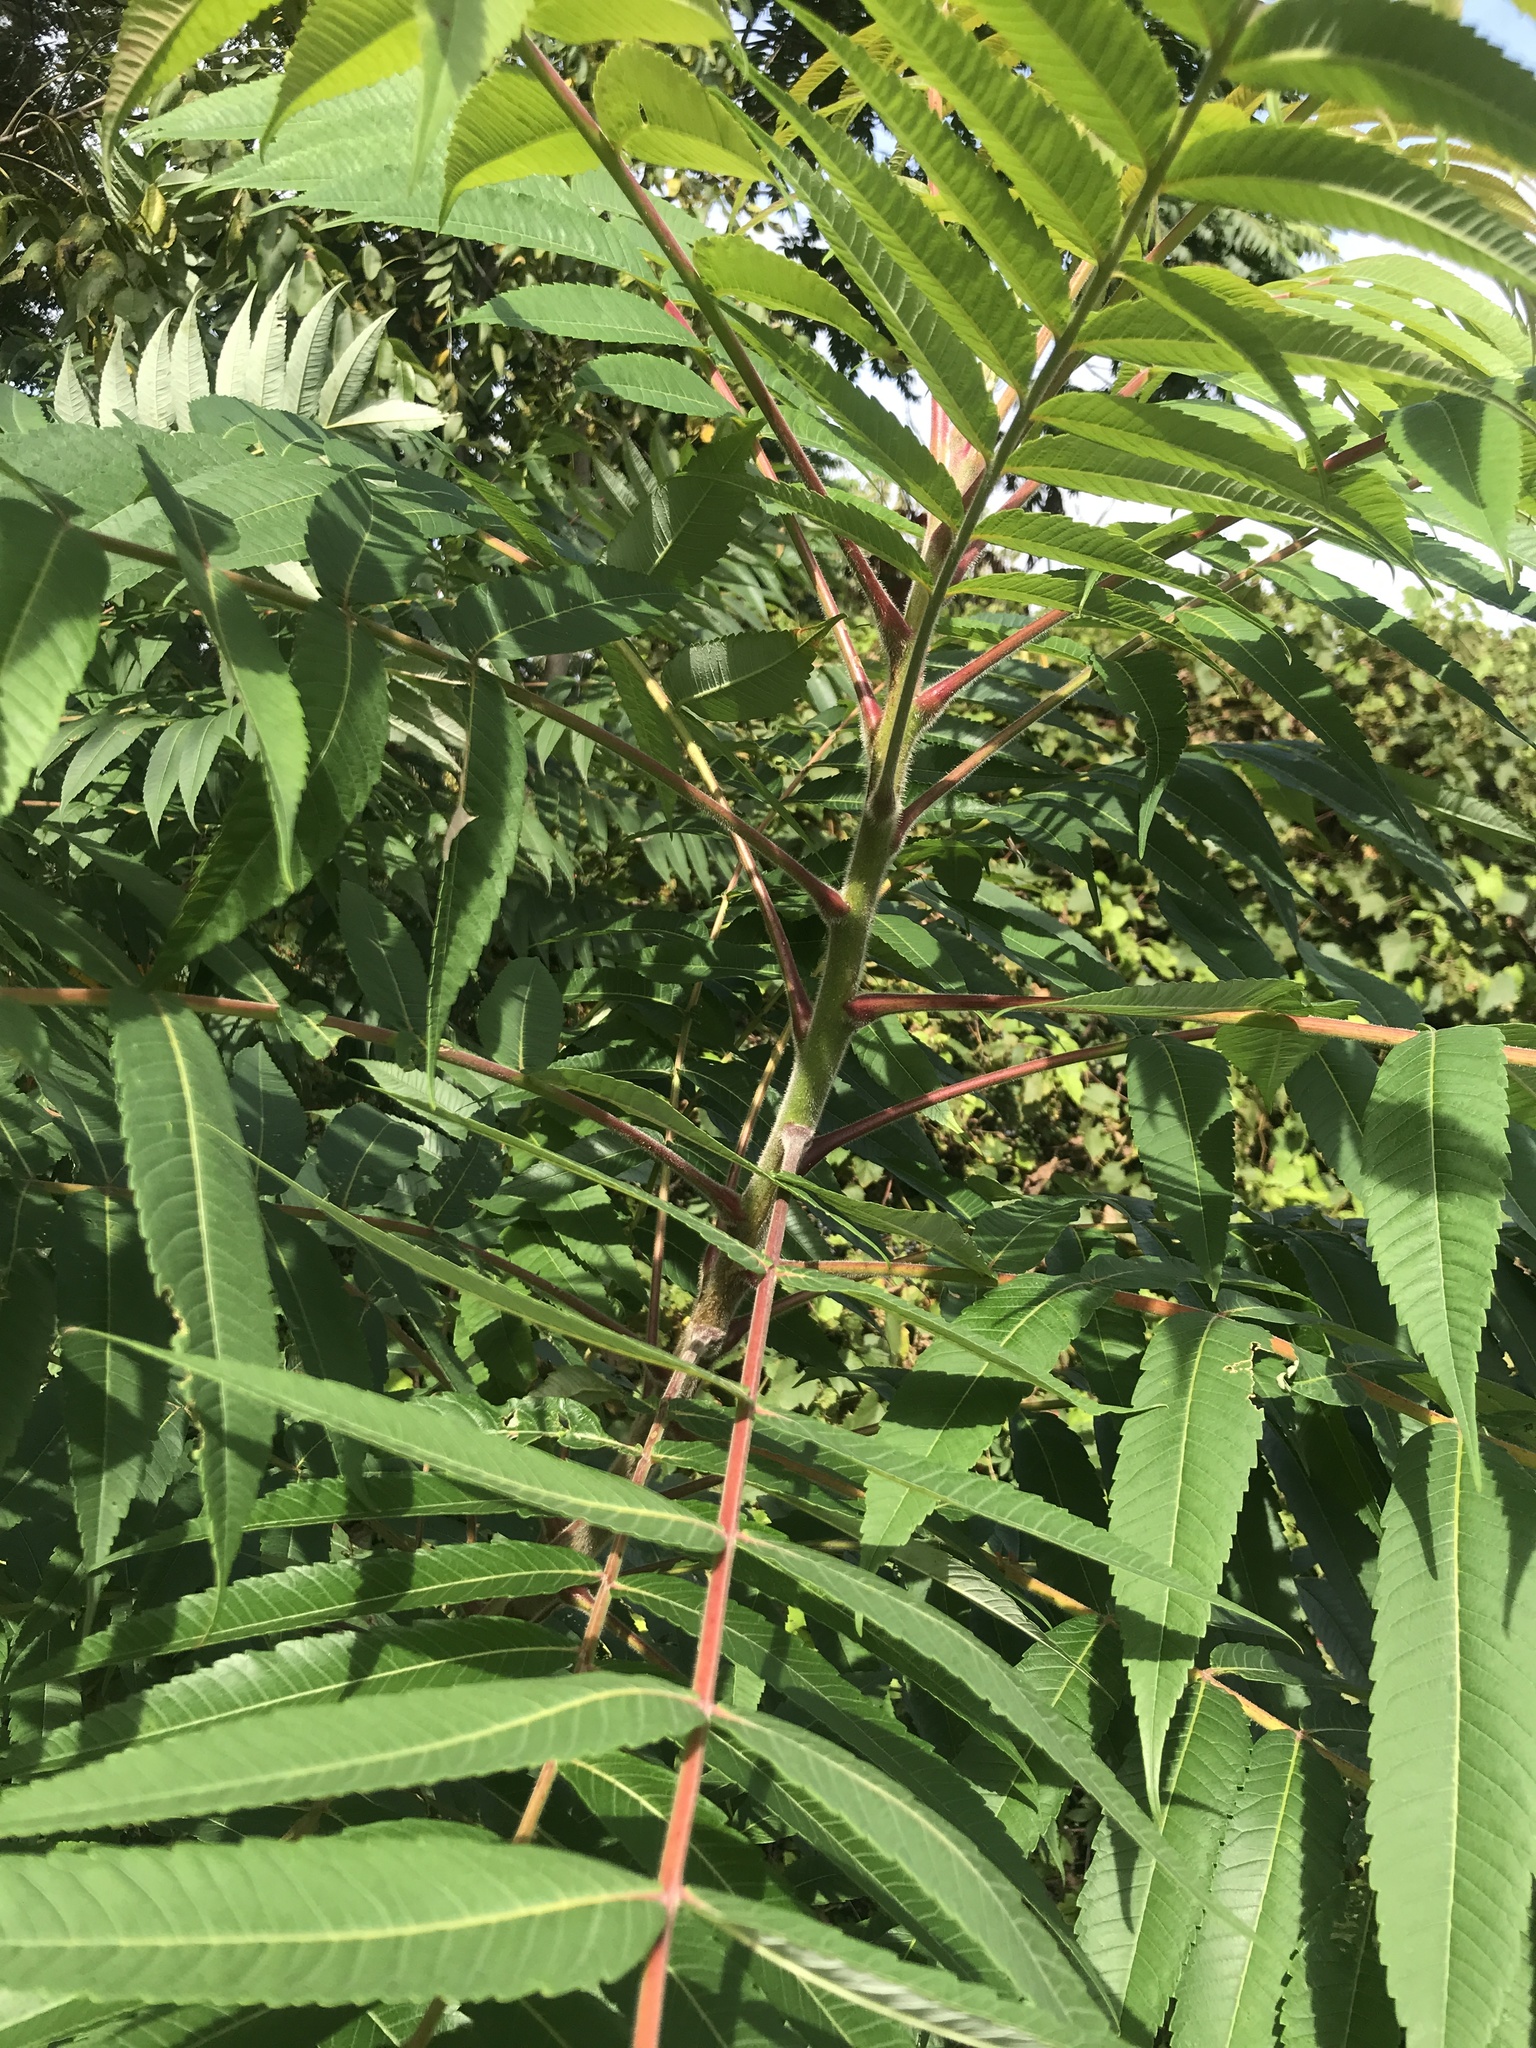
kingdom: Plantae
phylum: Tracheophyta
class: Magnoliopsida
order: Sapindales
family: Anacardiaceae
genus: Rhus
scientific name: Rhus typhina
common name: Staghorn sumac
